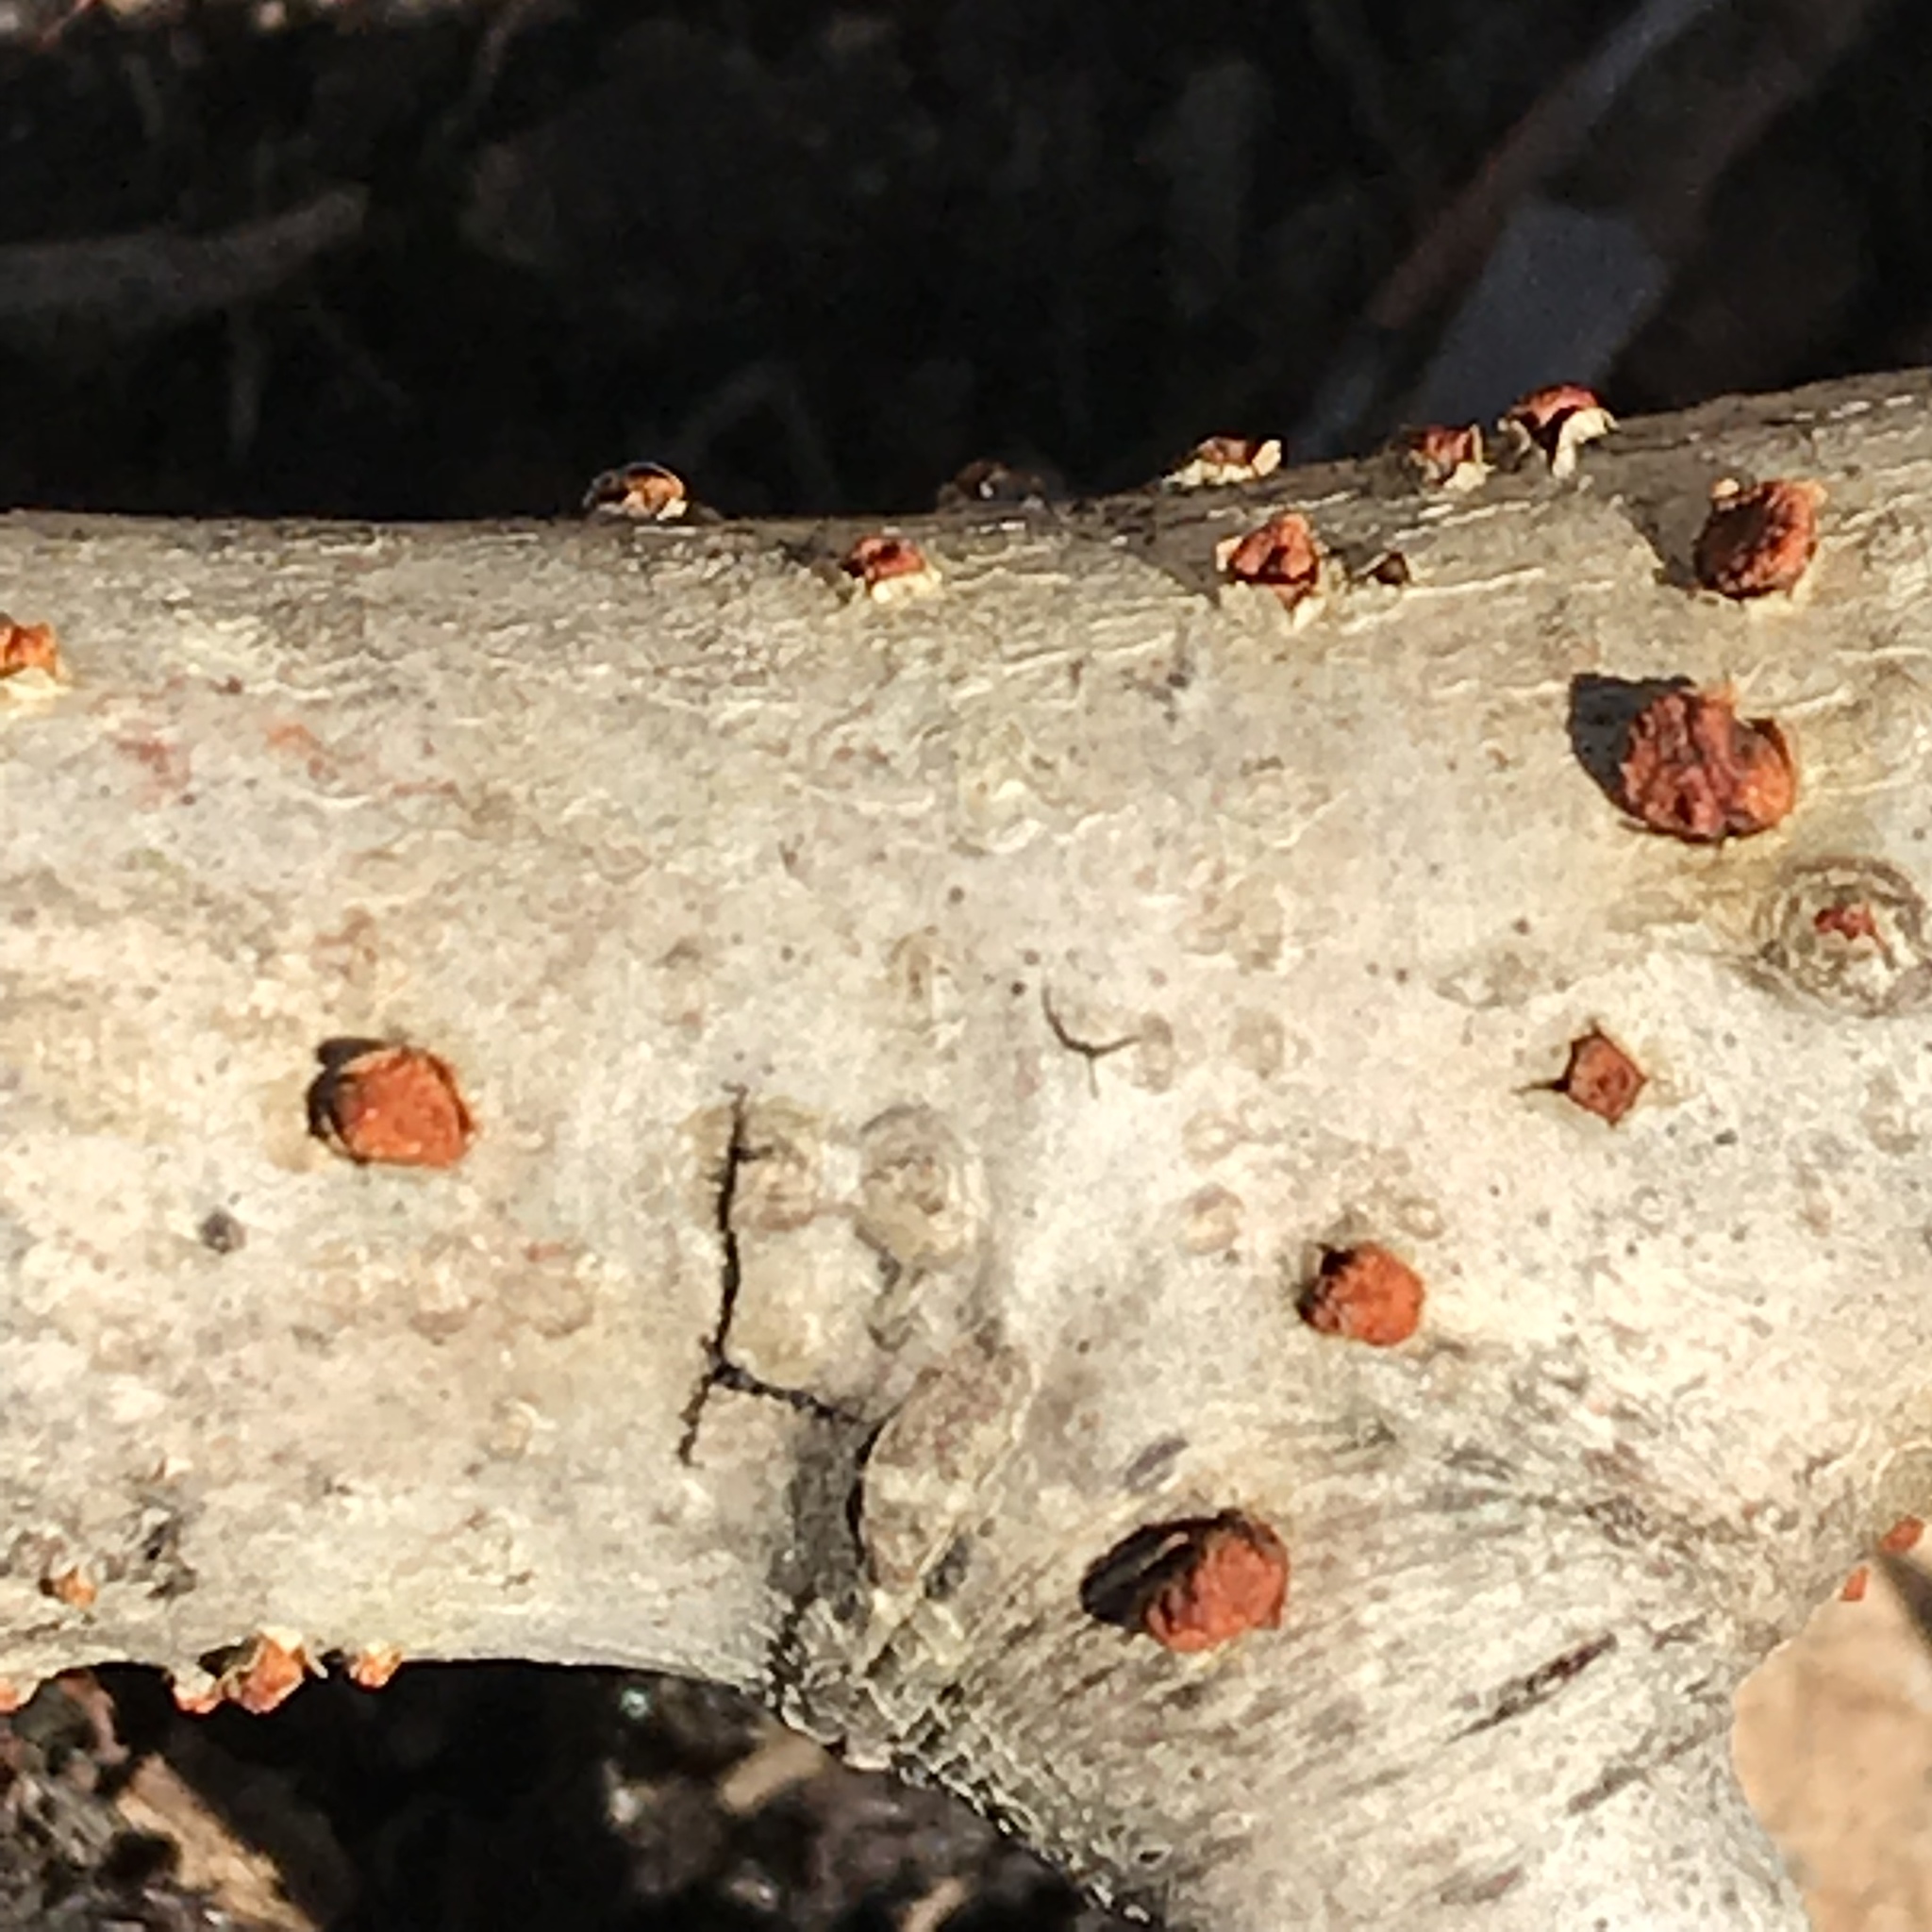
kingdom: Fungi
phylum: Ascomycota
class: Sordariomycetes
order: Diaporthales
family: Cryphonectriaceae
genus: Amphilogia
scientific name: Amphilogia gyrosa
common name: Orange hobnail canker
